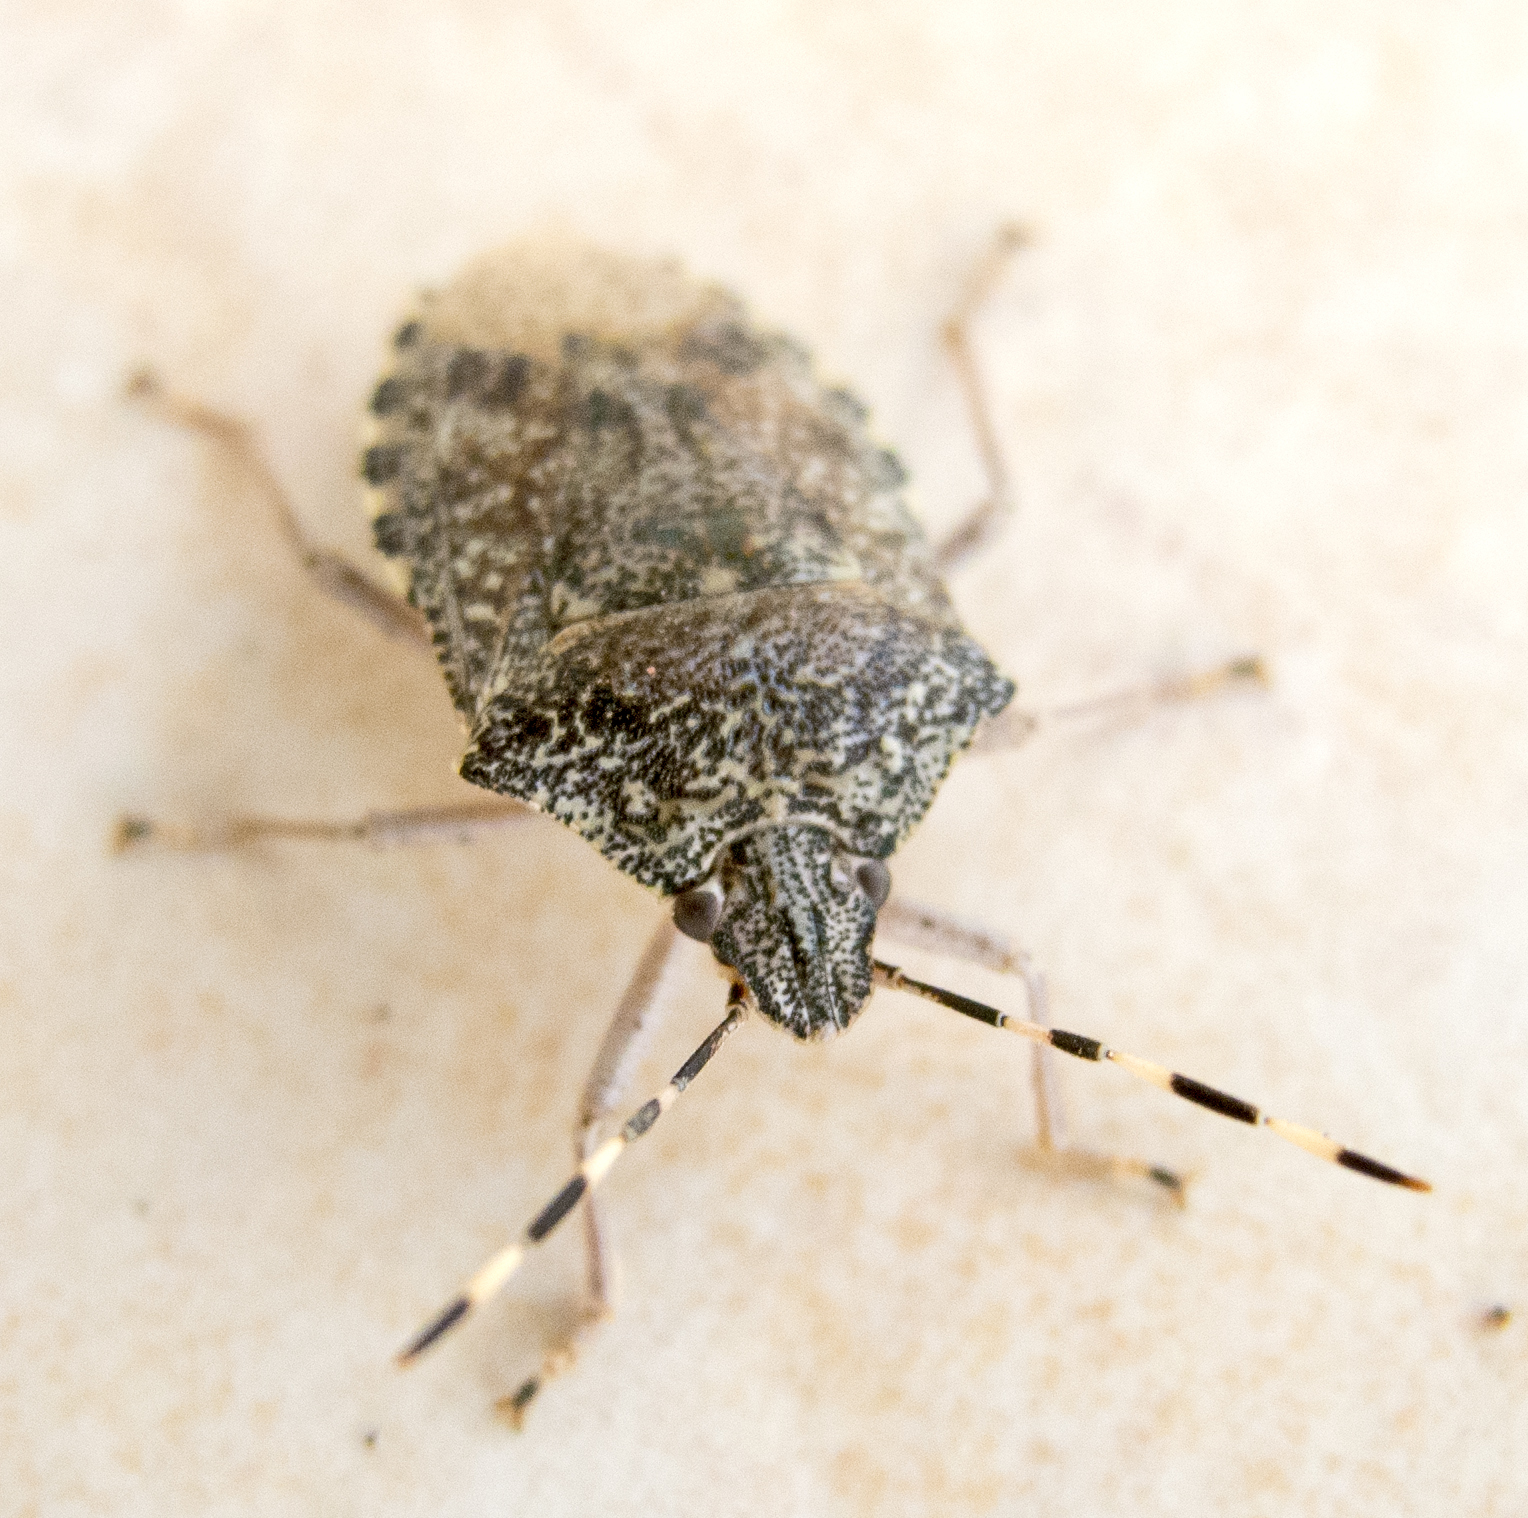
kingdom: Animalia
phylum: Arthropoda
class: Insecta
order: Hemiptera
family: Pentatomidae
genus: Rhaphigaster
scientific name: Rhaphigaster nebulosa
